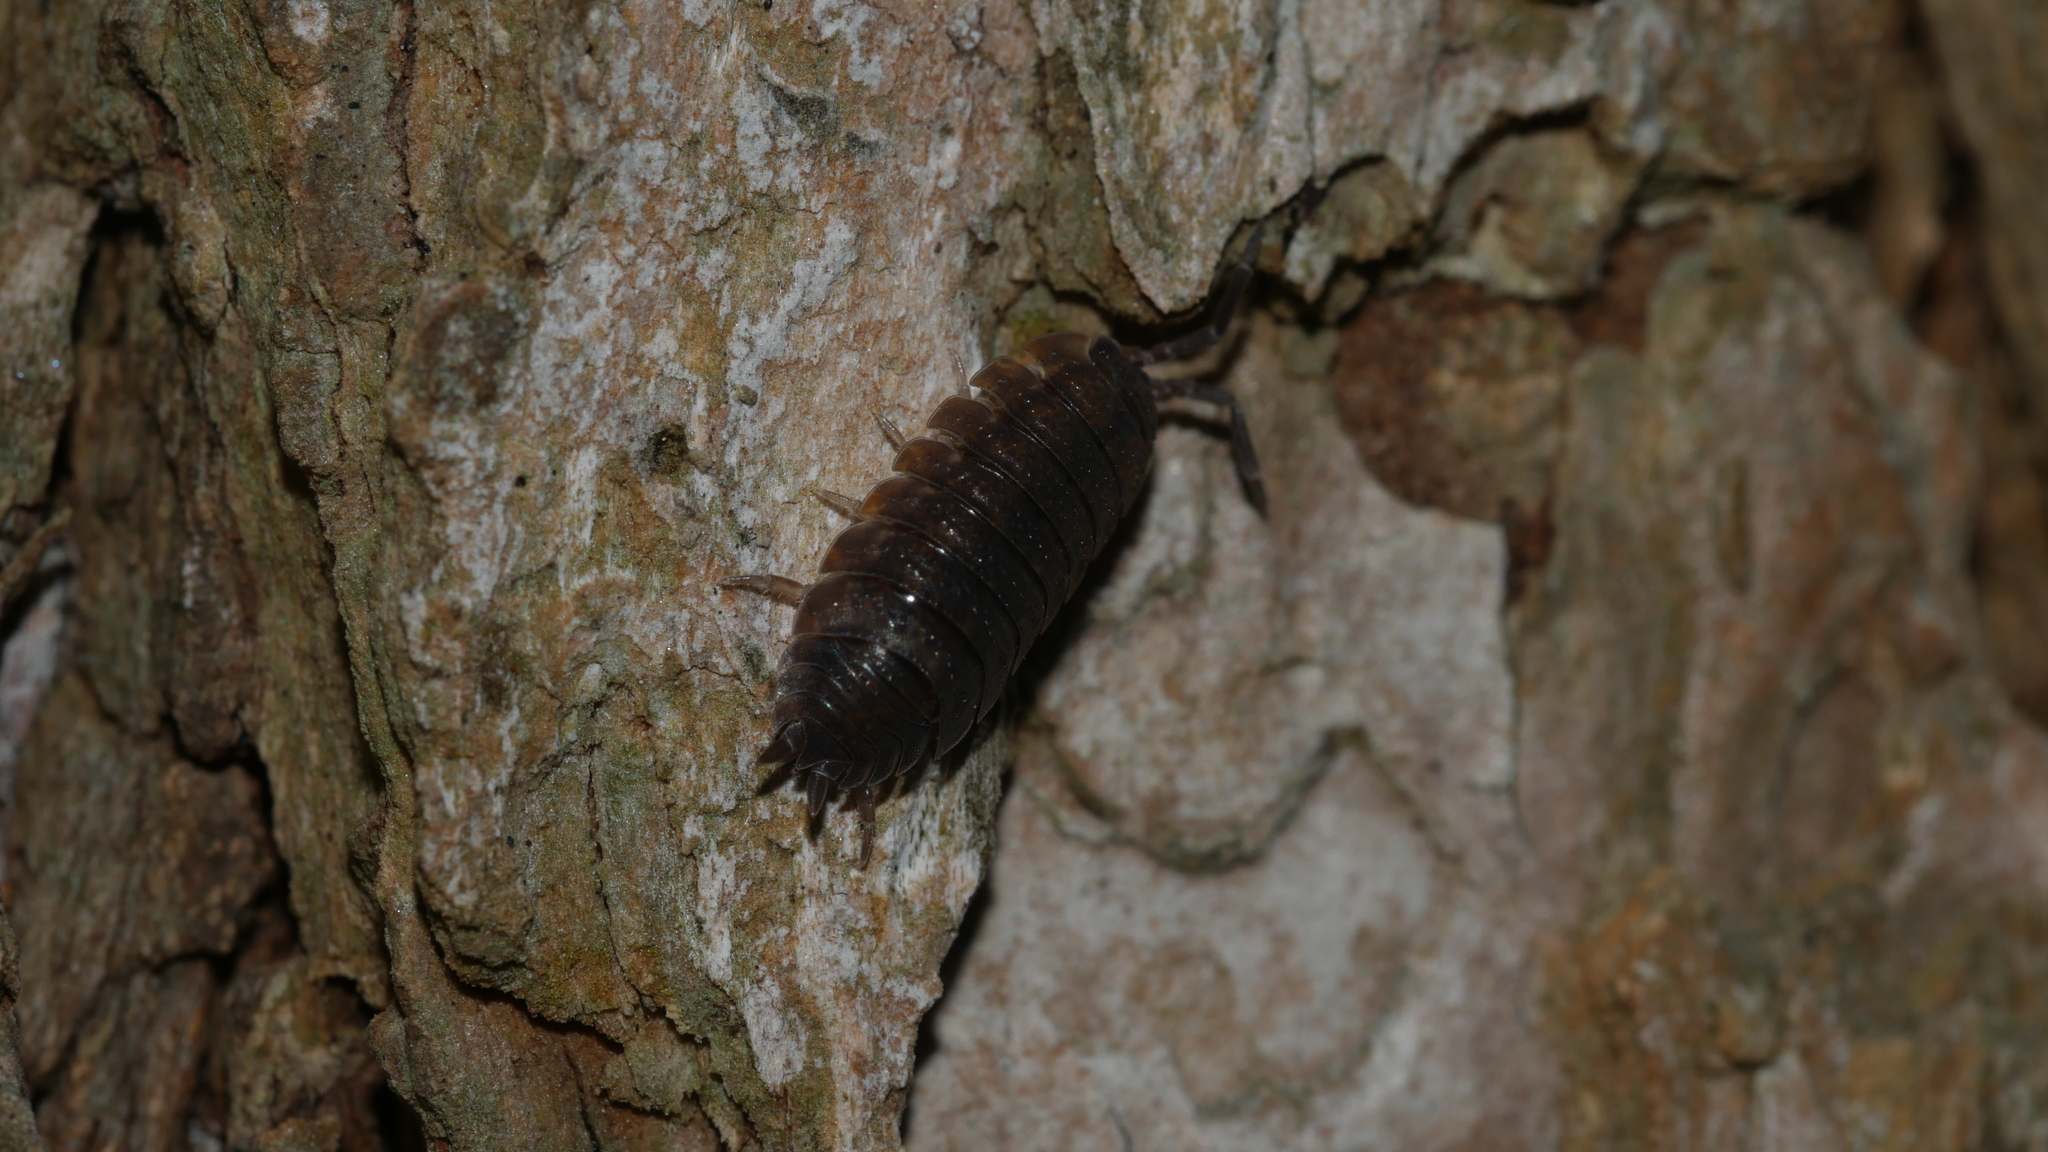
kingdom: Animalia
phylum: Arthropoda
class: Malacostraca
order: Isopoda
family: Porcellionidae
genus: Porcellio
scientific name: Porcellio scaber
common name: Common rough woodlouse
